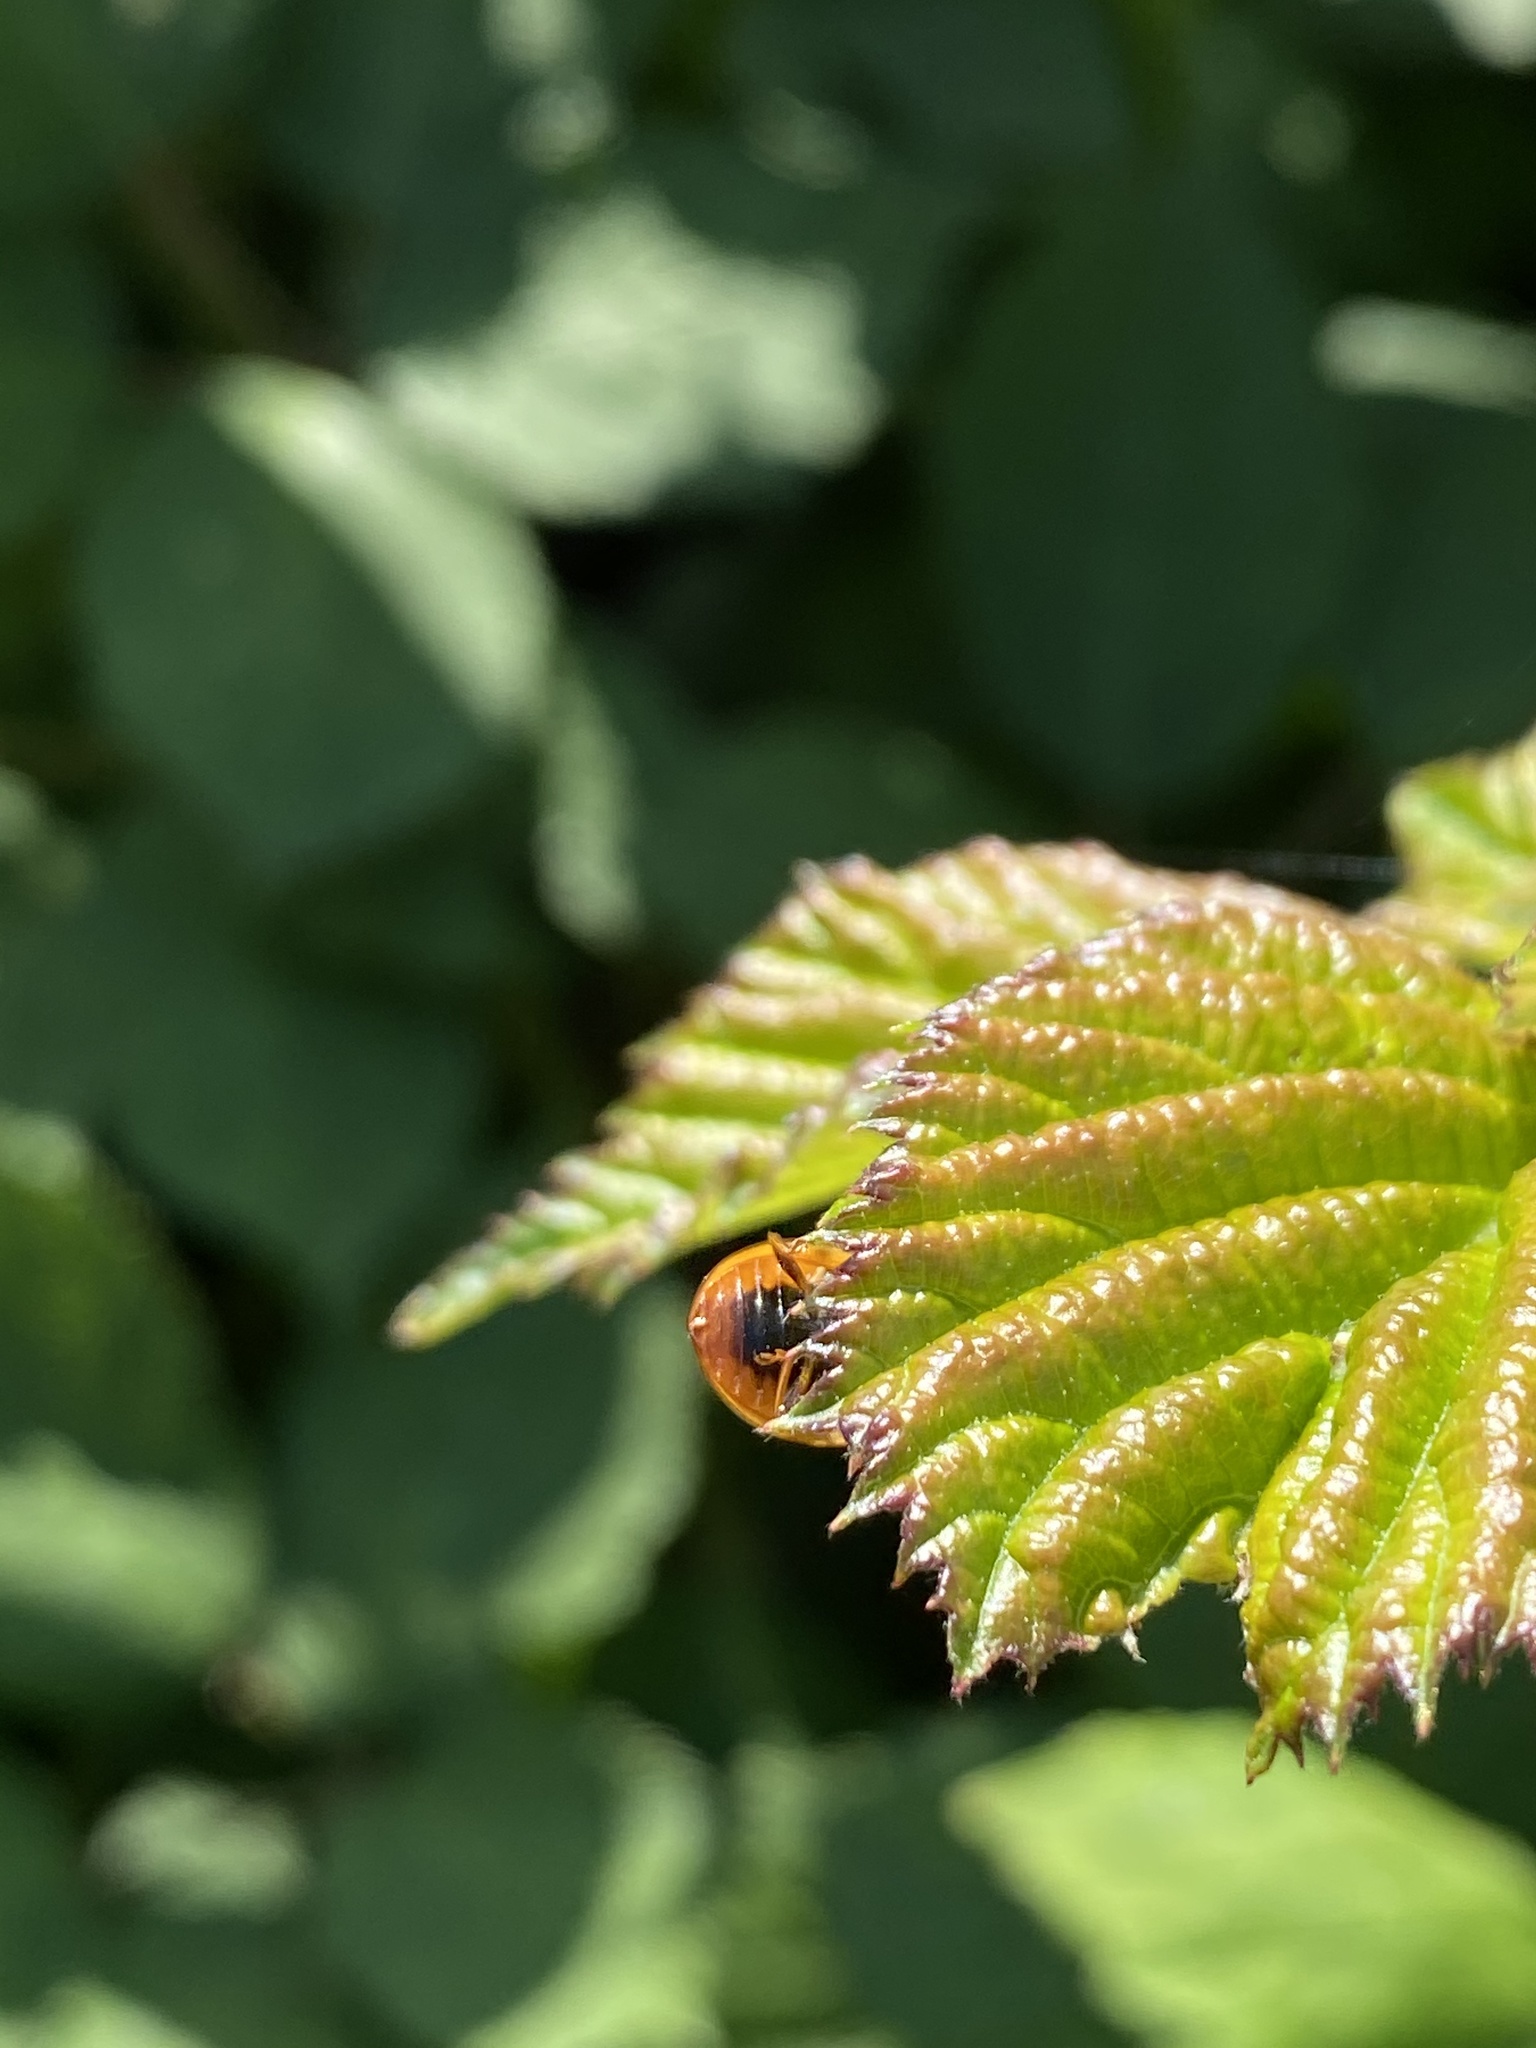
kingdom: Animalia
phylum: Arthropoda
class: Insecta
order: Coleoptera
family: Coccinellidae
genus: Harmonia
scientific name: Harmonia axyridis
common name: Harlequin ladybird
